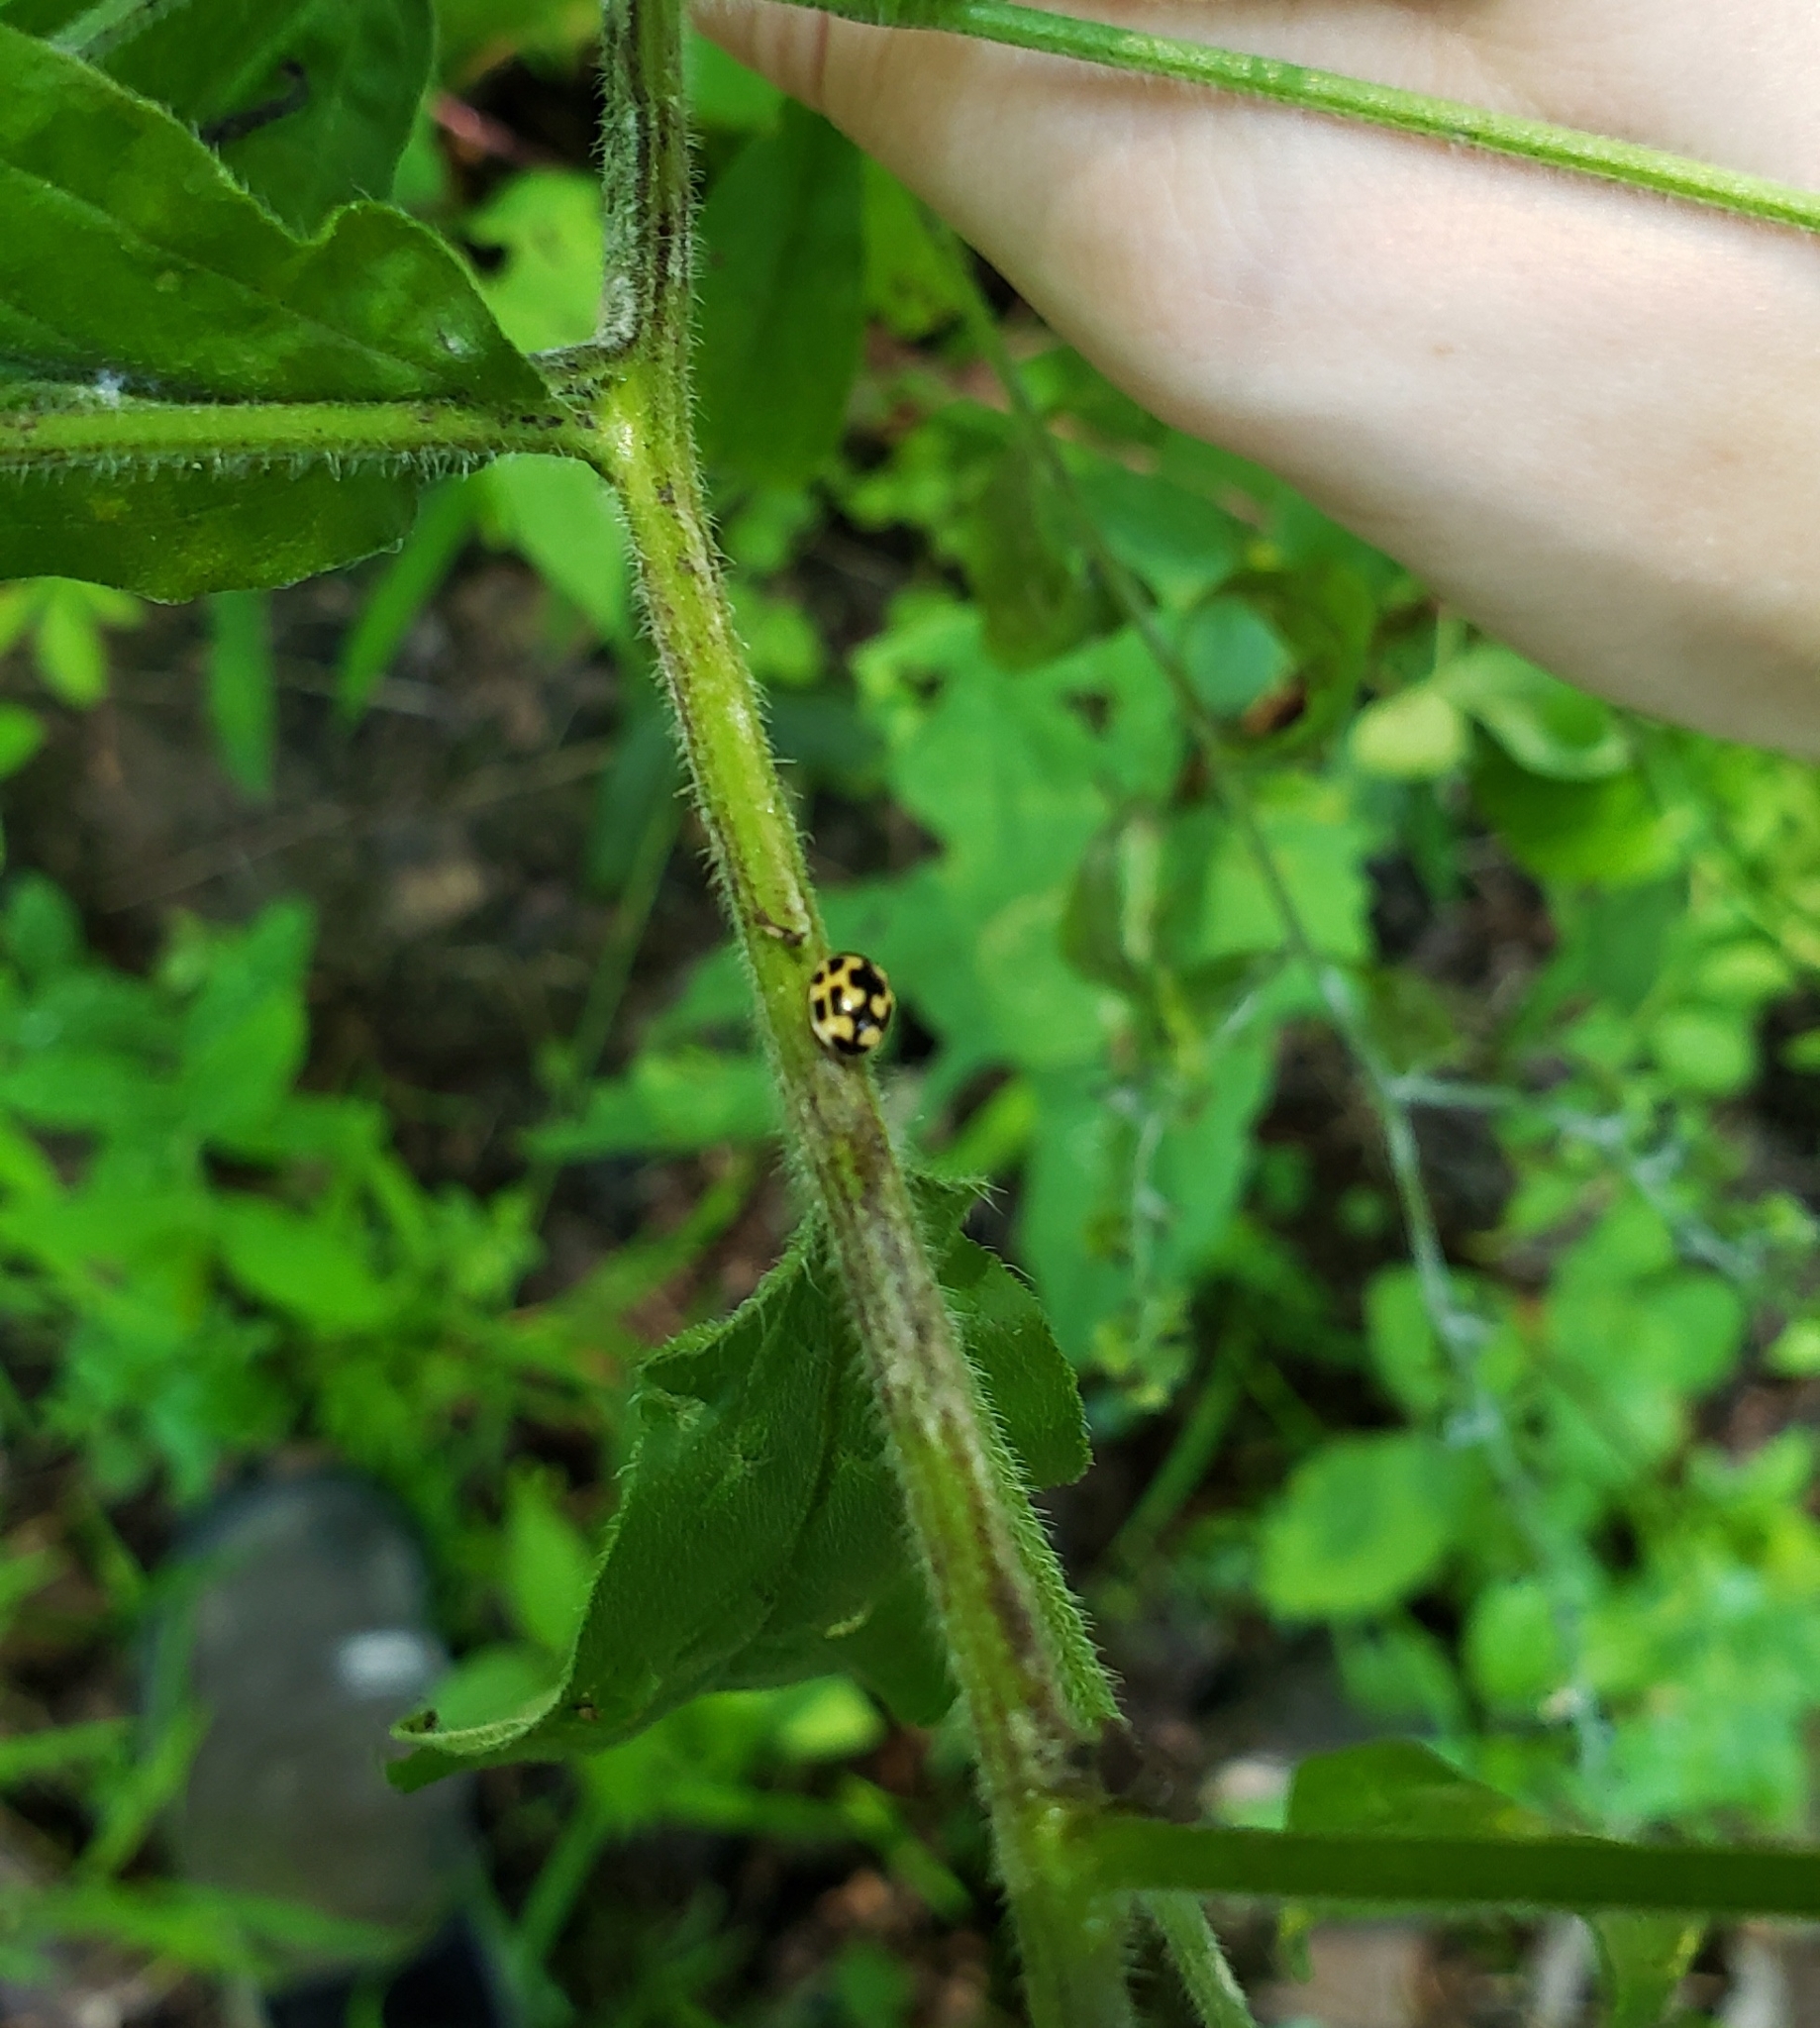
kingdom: Animalia
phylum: Arthropoda
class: Insecta
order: Coleoptera
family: Coccinellidae
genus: Propylaea
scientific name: Propylaea quatuordecimpunctata
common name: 14-spotted ladybird beetle
